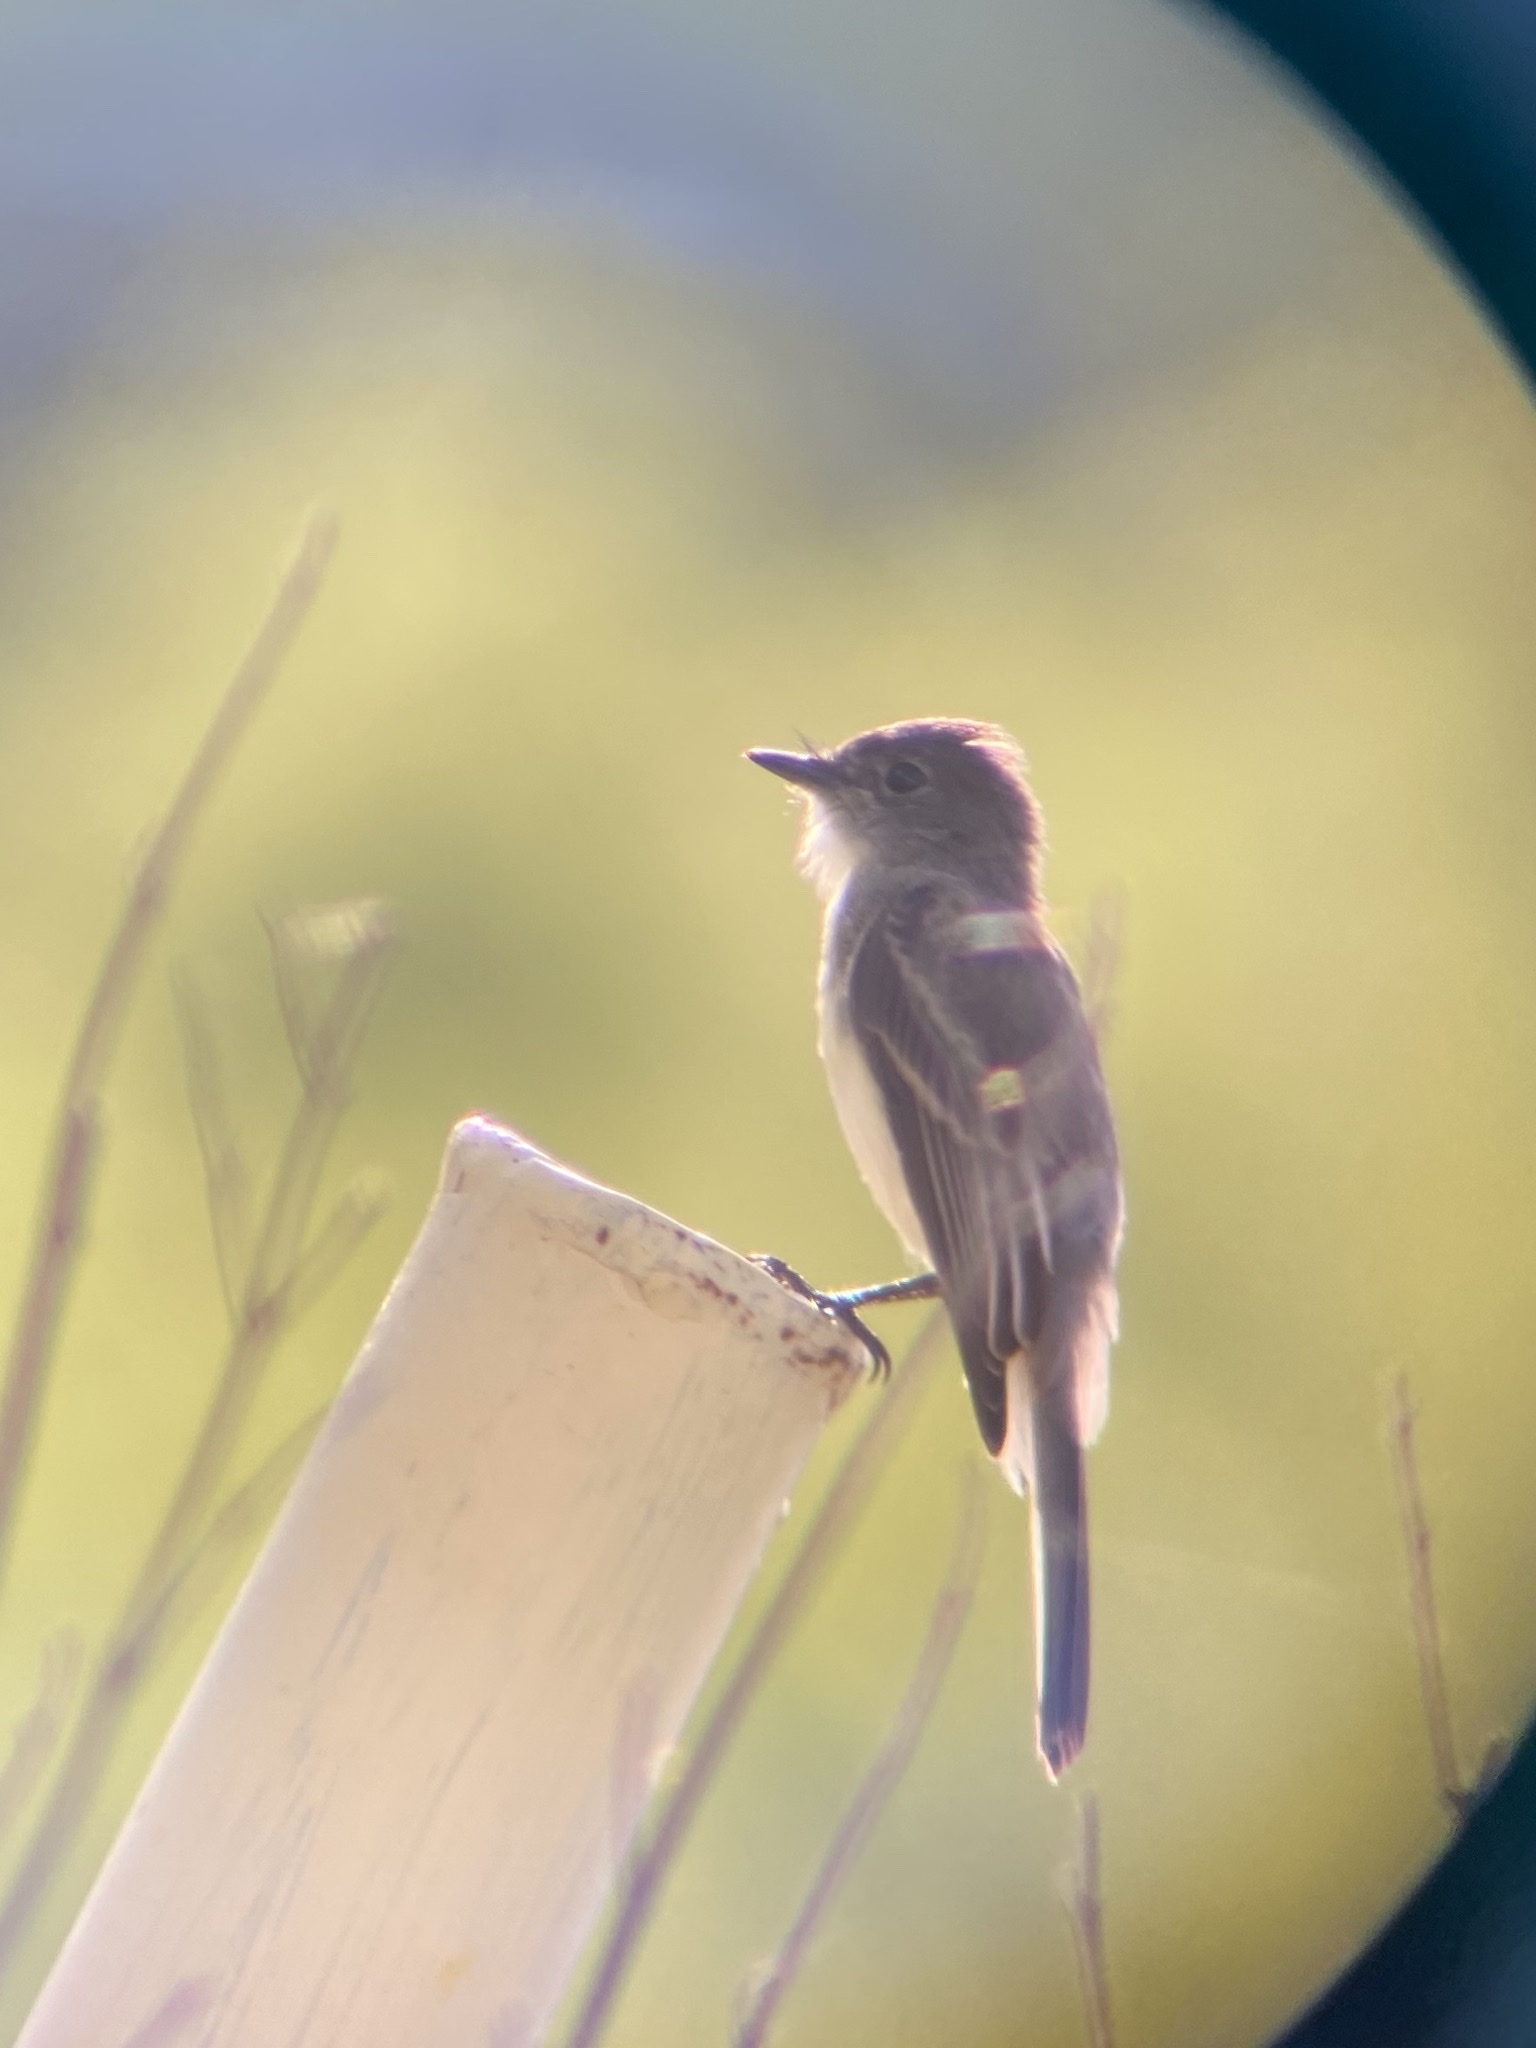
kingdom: Animalia
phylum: Chordata
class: Aves
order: Passeriformes
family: Tyrannidae
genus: Sayornis
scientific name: Sayornis phoebe
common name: Eastern phoebe
